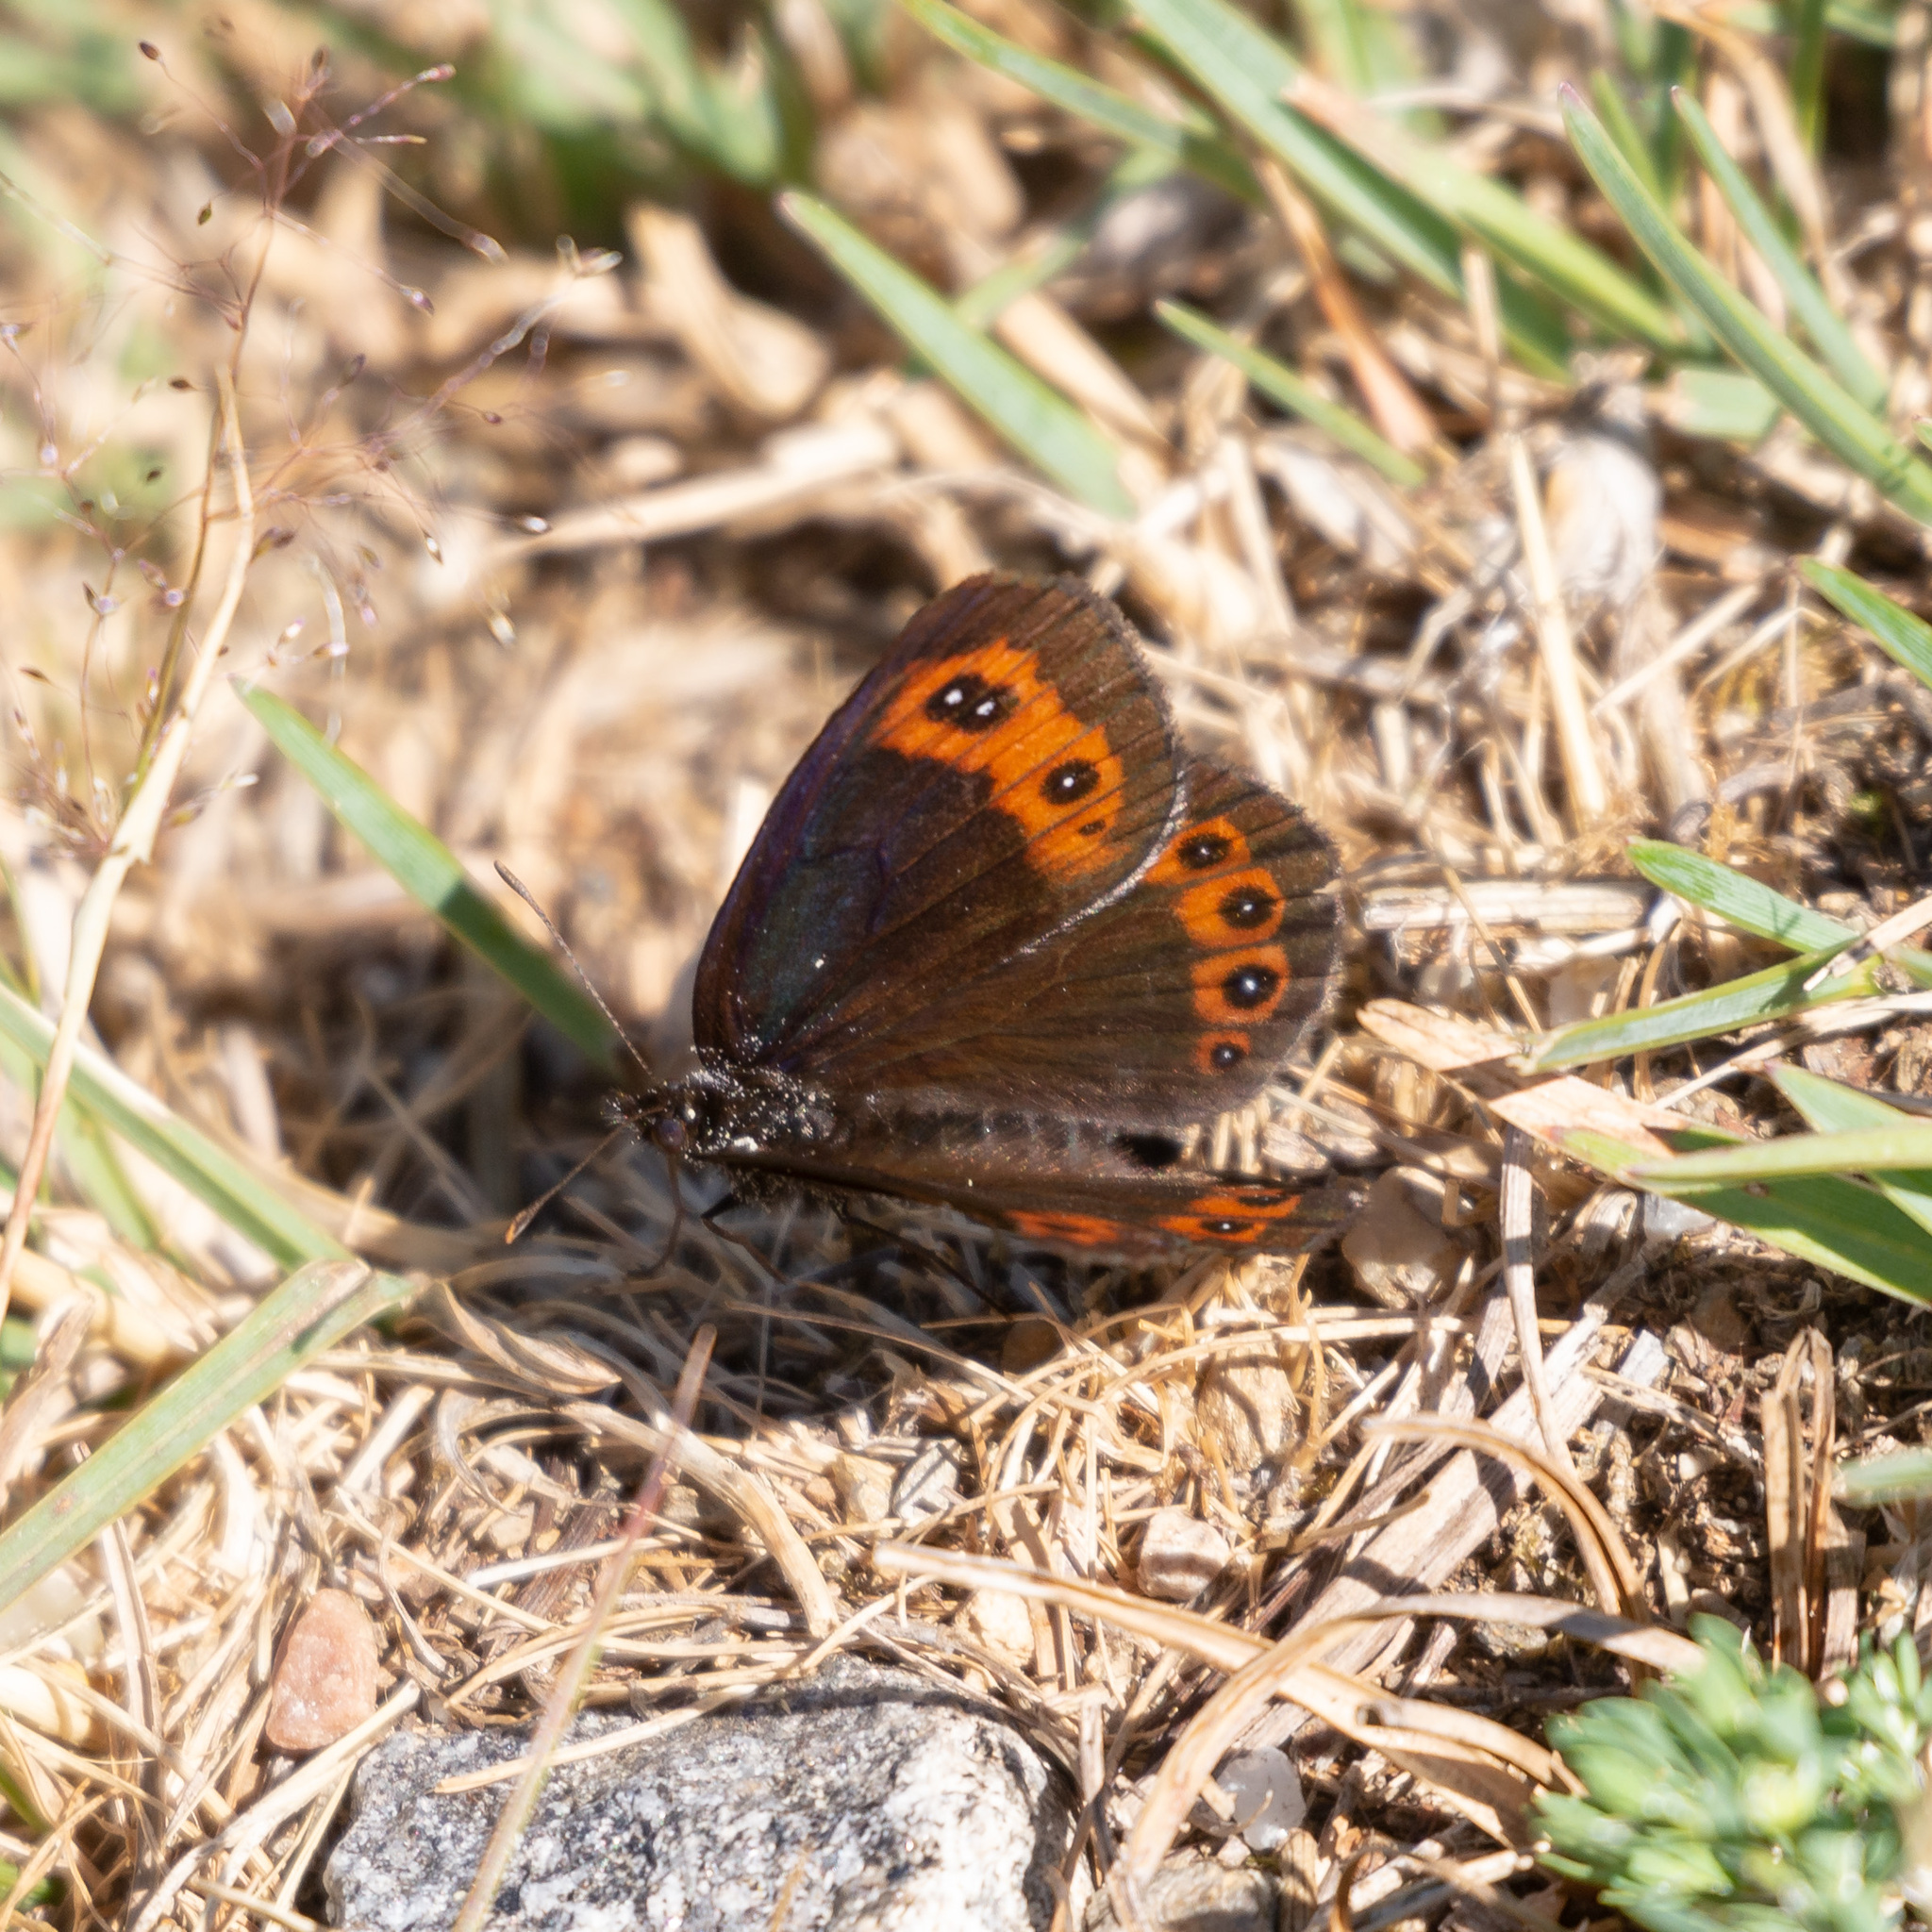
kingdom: Animalia
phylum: Arthropoda
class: Insecta
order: Lepidoptera
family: Nymphalidae
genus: Erebia
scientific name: Erebia palarica
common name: Chapman's ringlet
